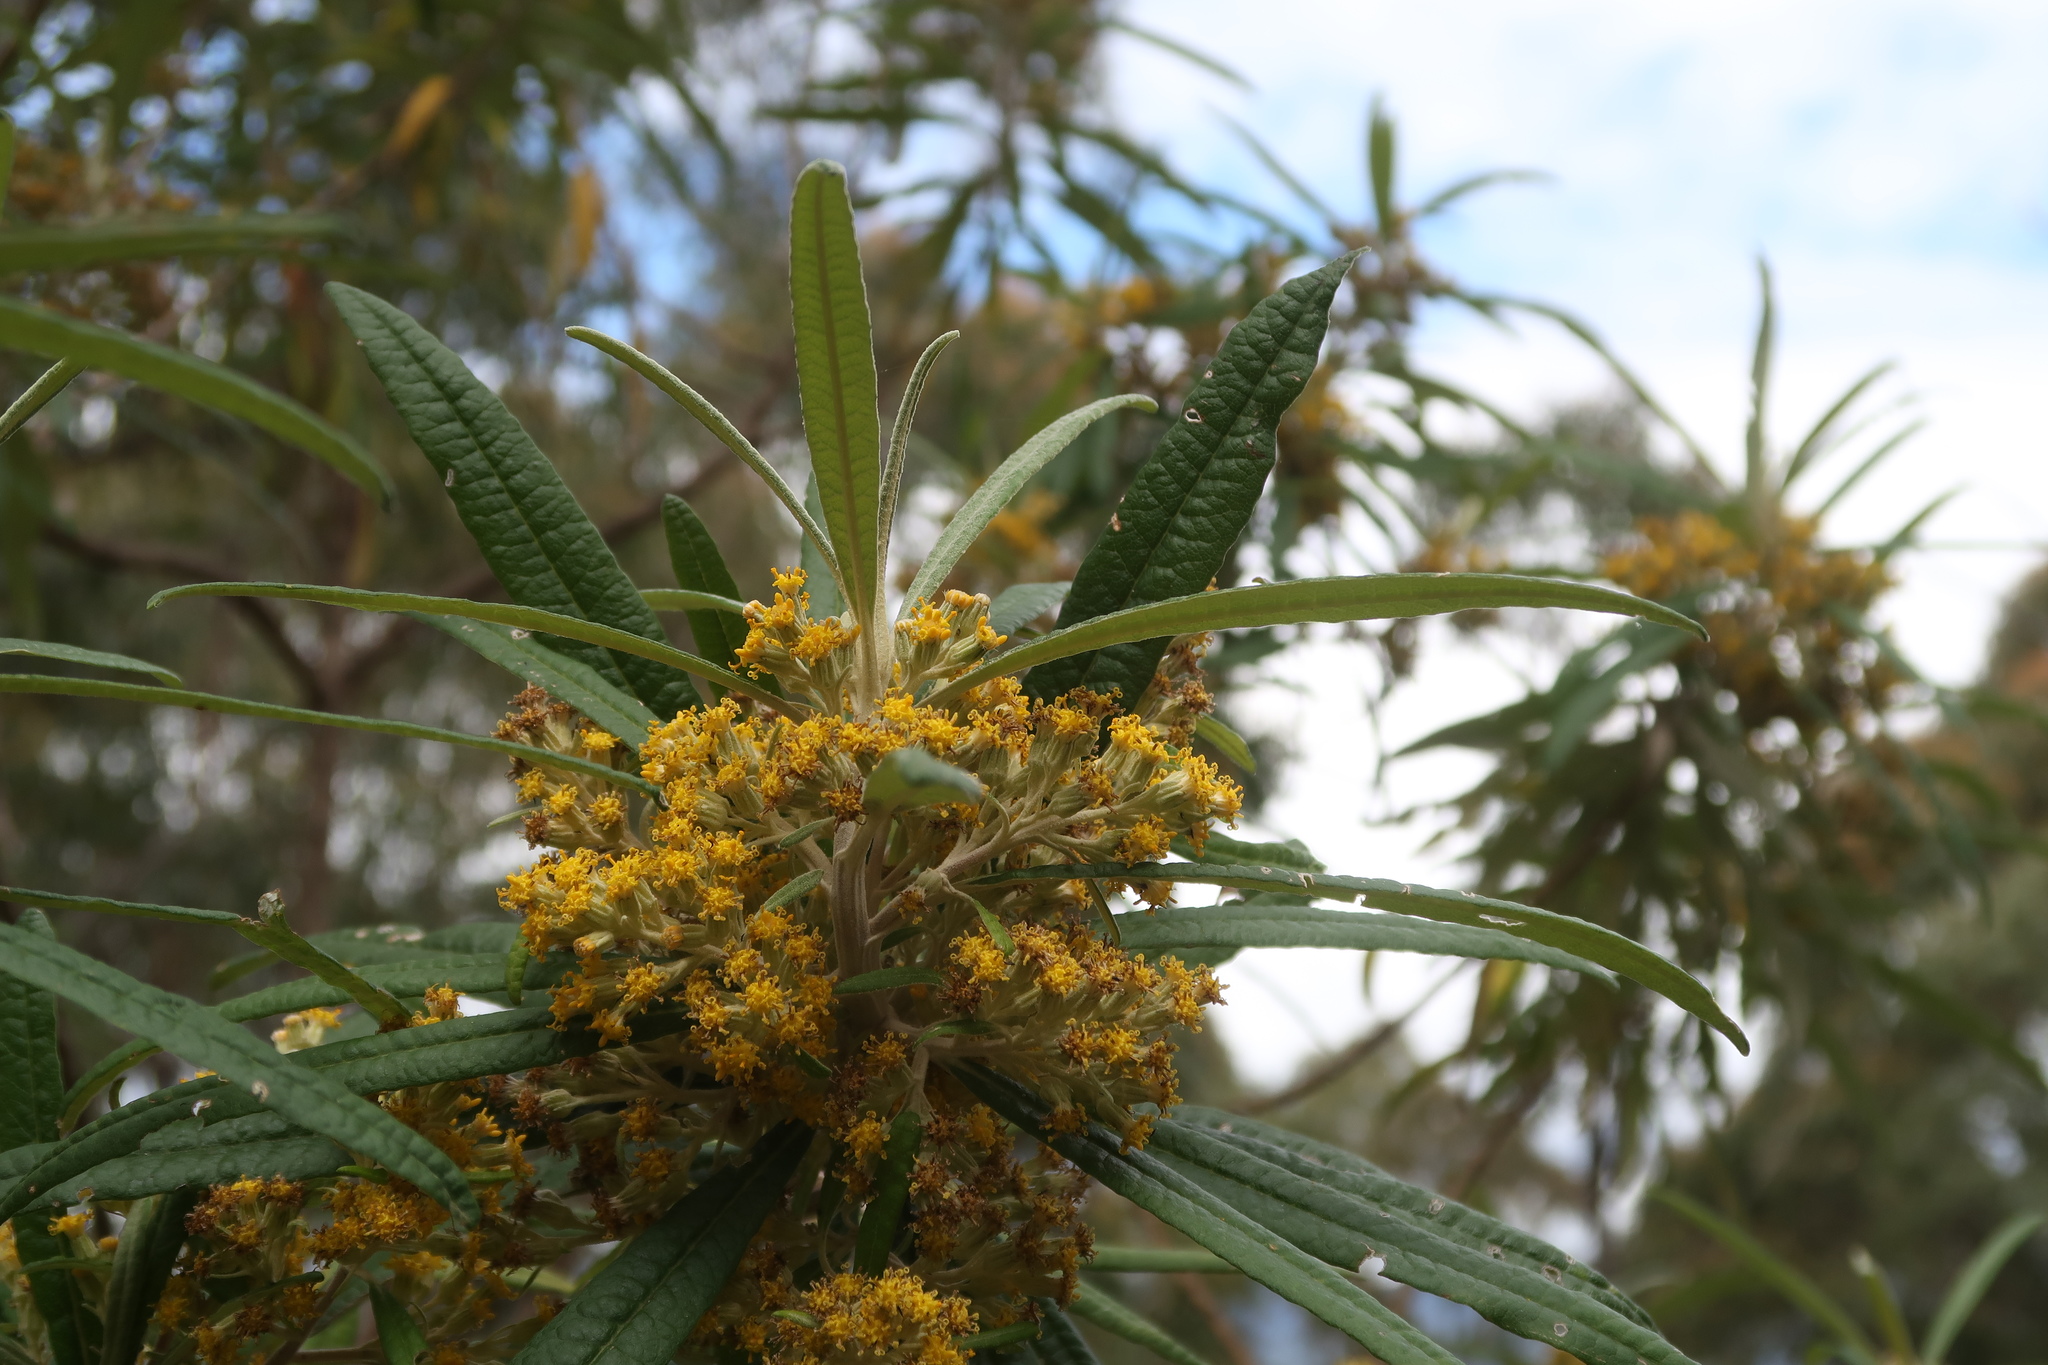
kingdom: Plantae
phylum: Tracheophyta
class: Magnoliopsida
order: Asterales
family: Asteraceae
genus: Bedfordia
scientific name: Bedfordia salicina
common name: Blanketleaf
